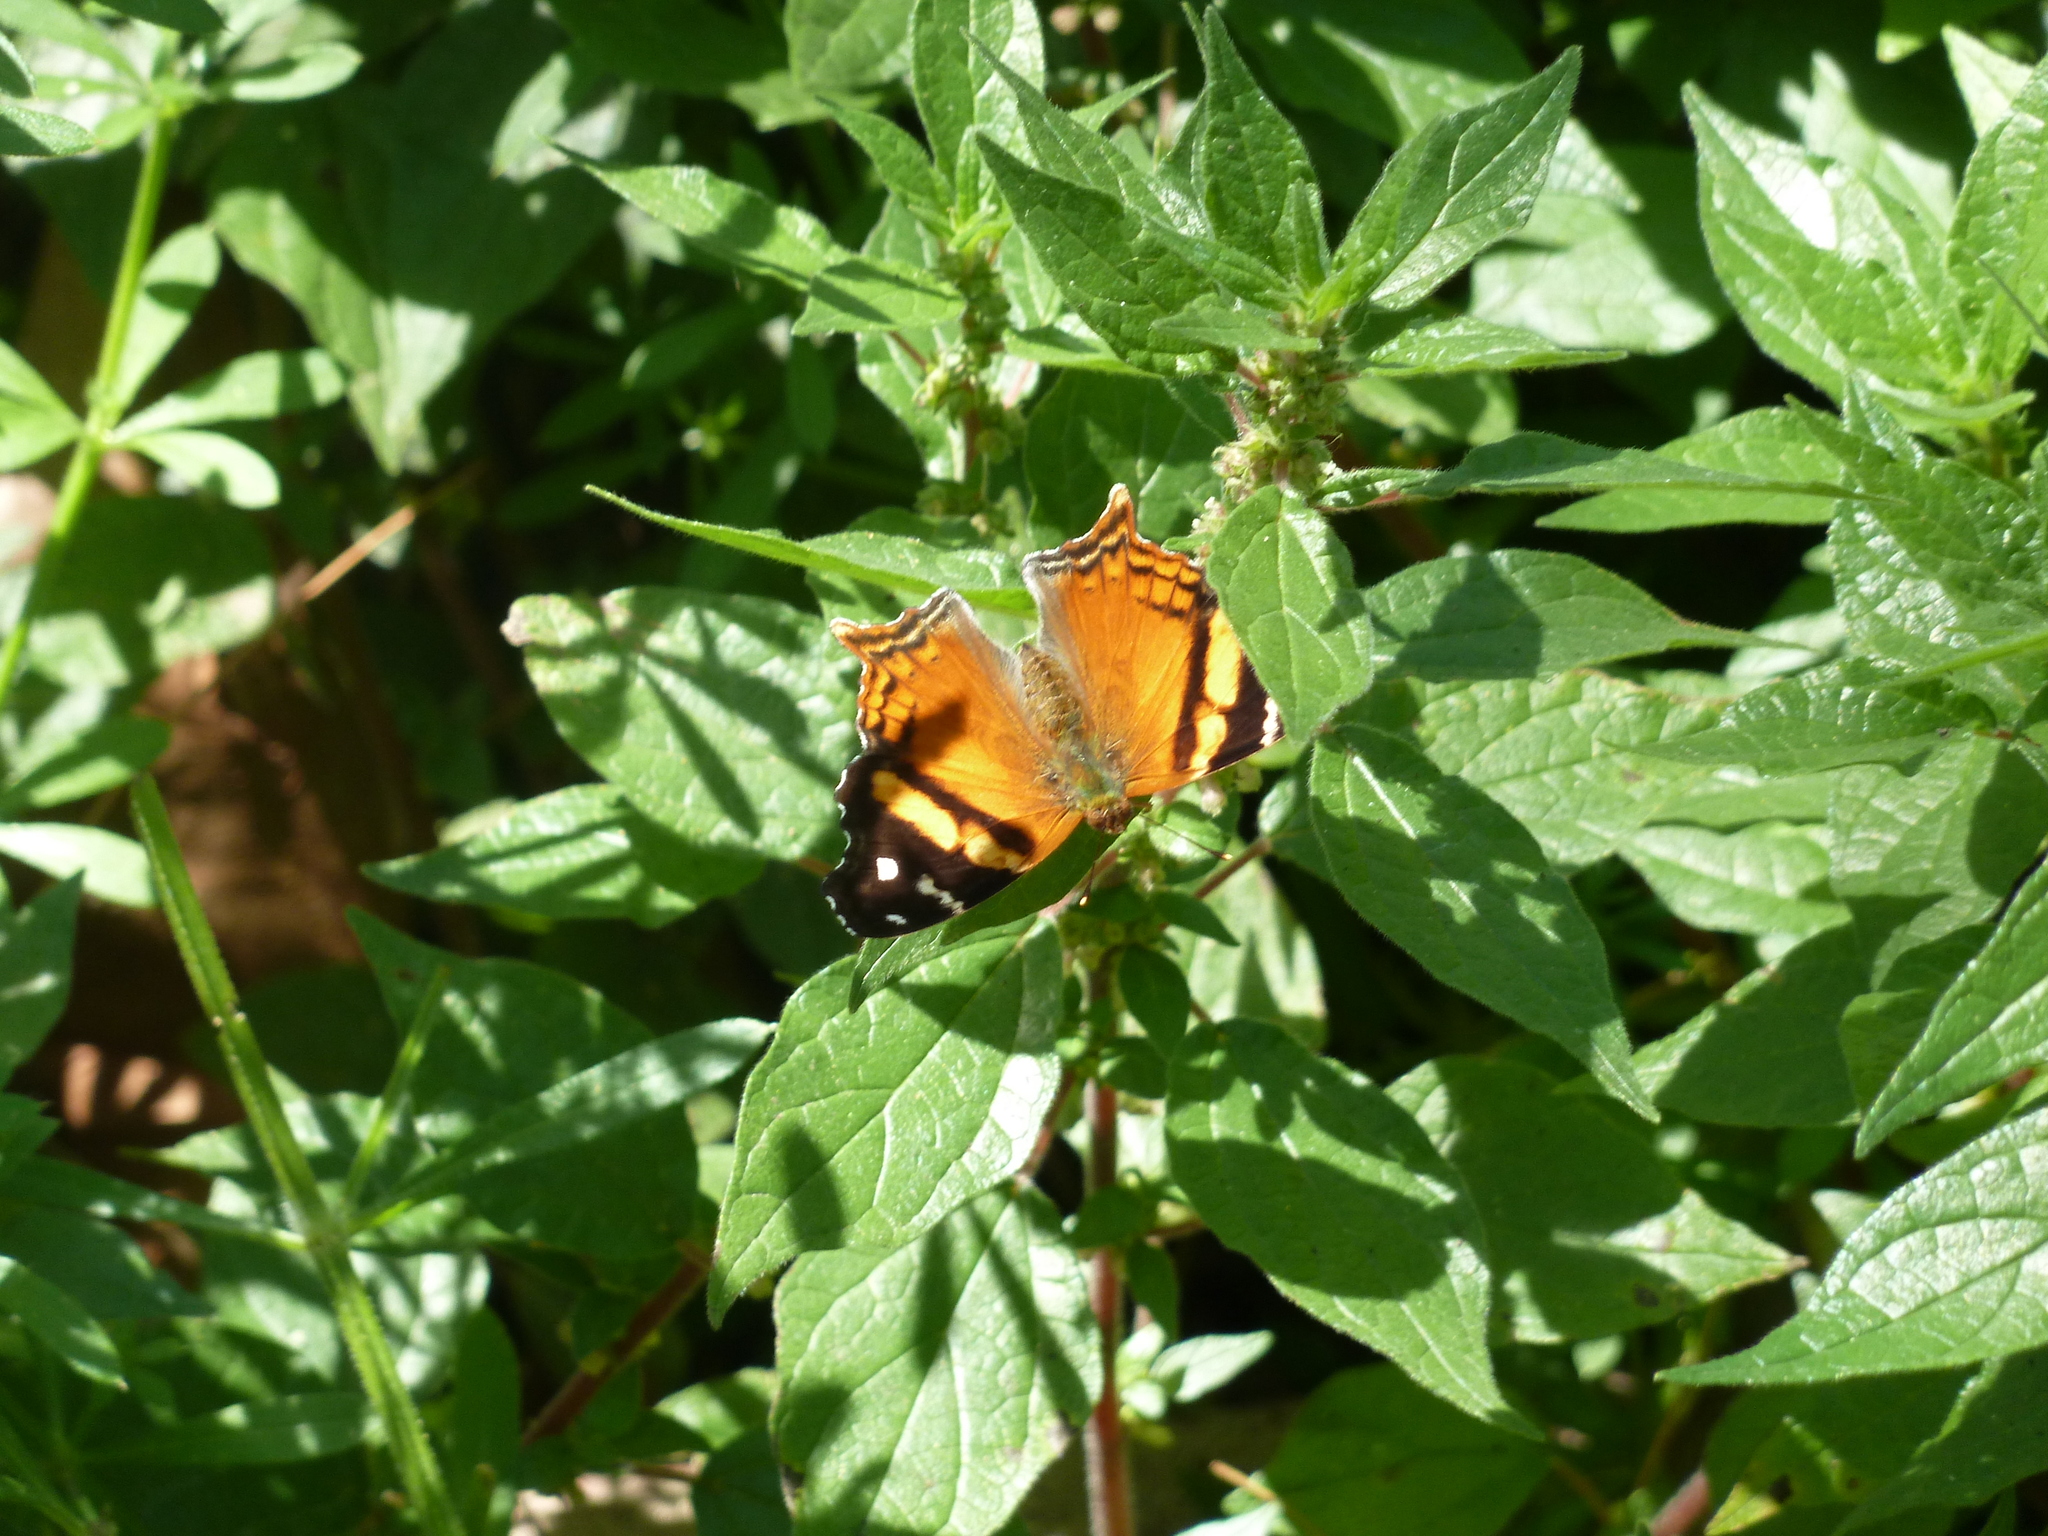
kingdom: Animalia
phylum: Arthropoda
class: Insecta
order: Lepidoptera
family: Nymphalidae
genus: Hypanartia
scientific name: Hypanartia bella
